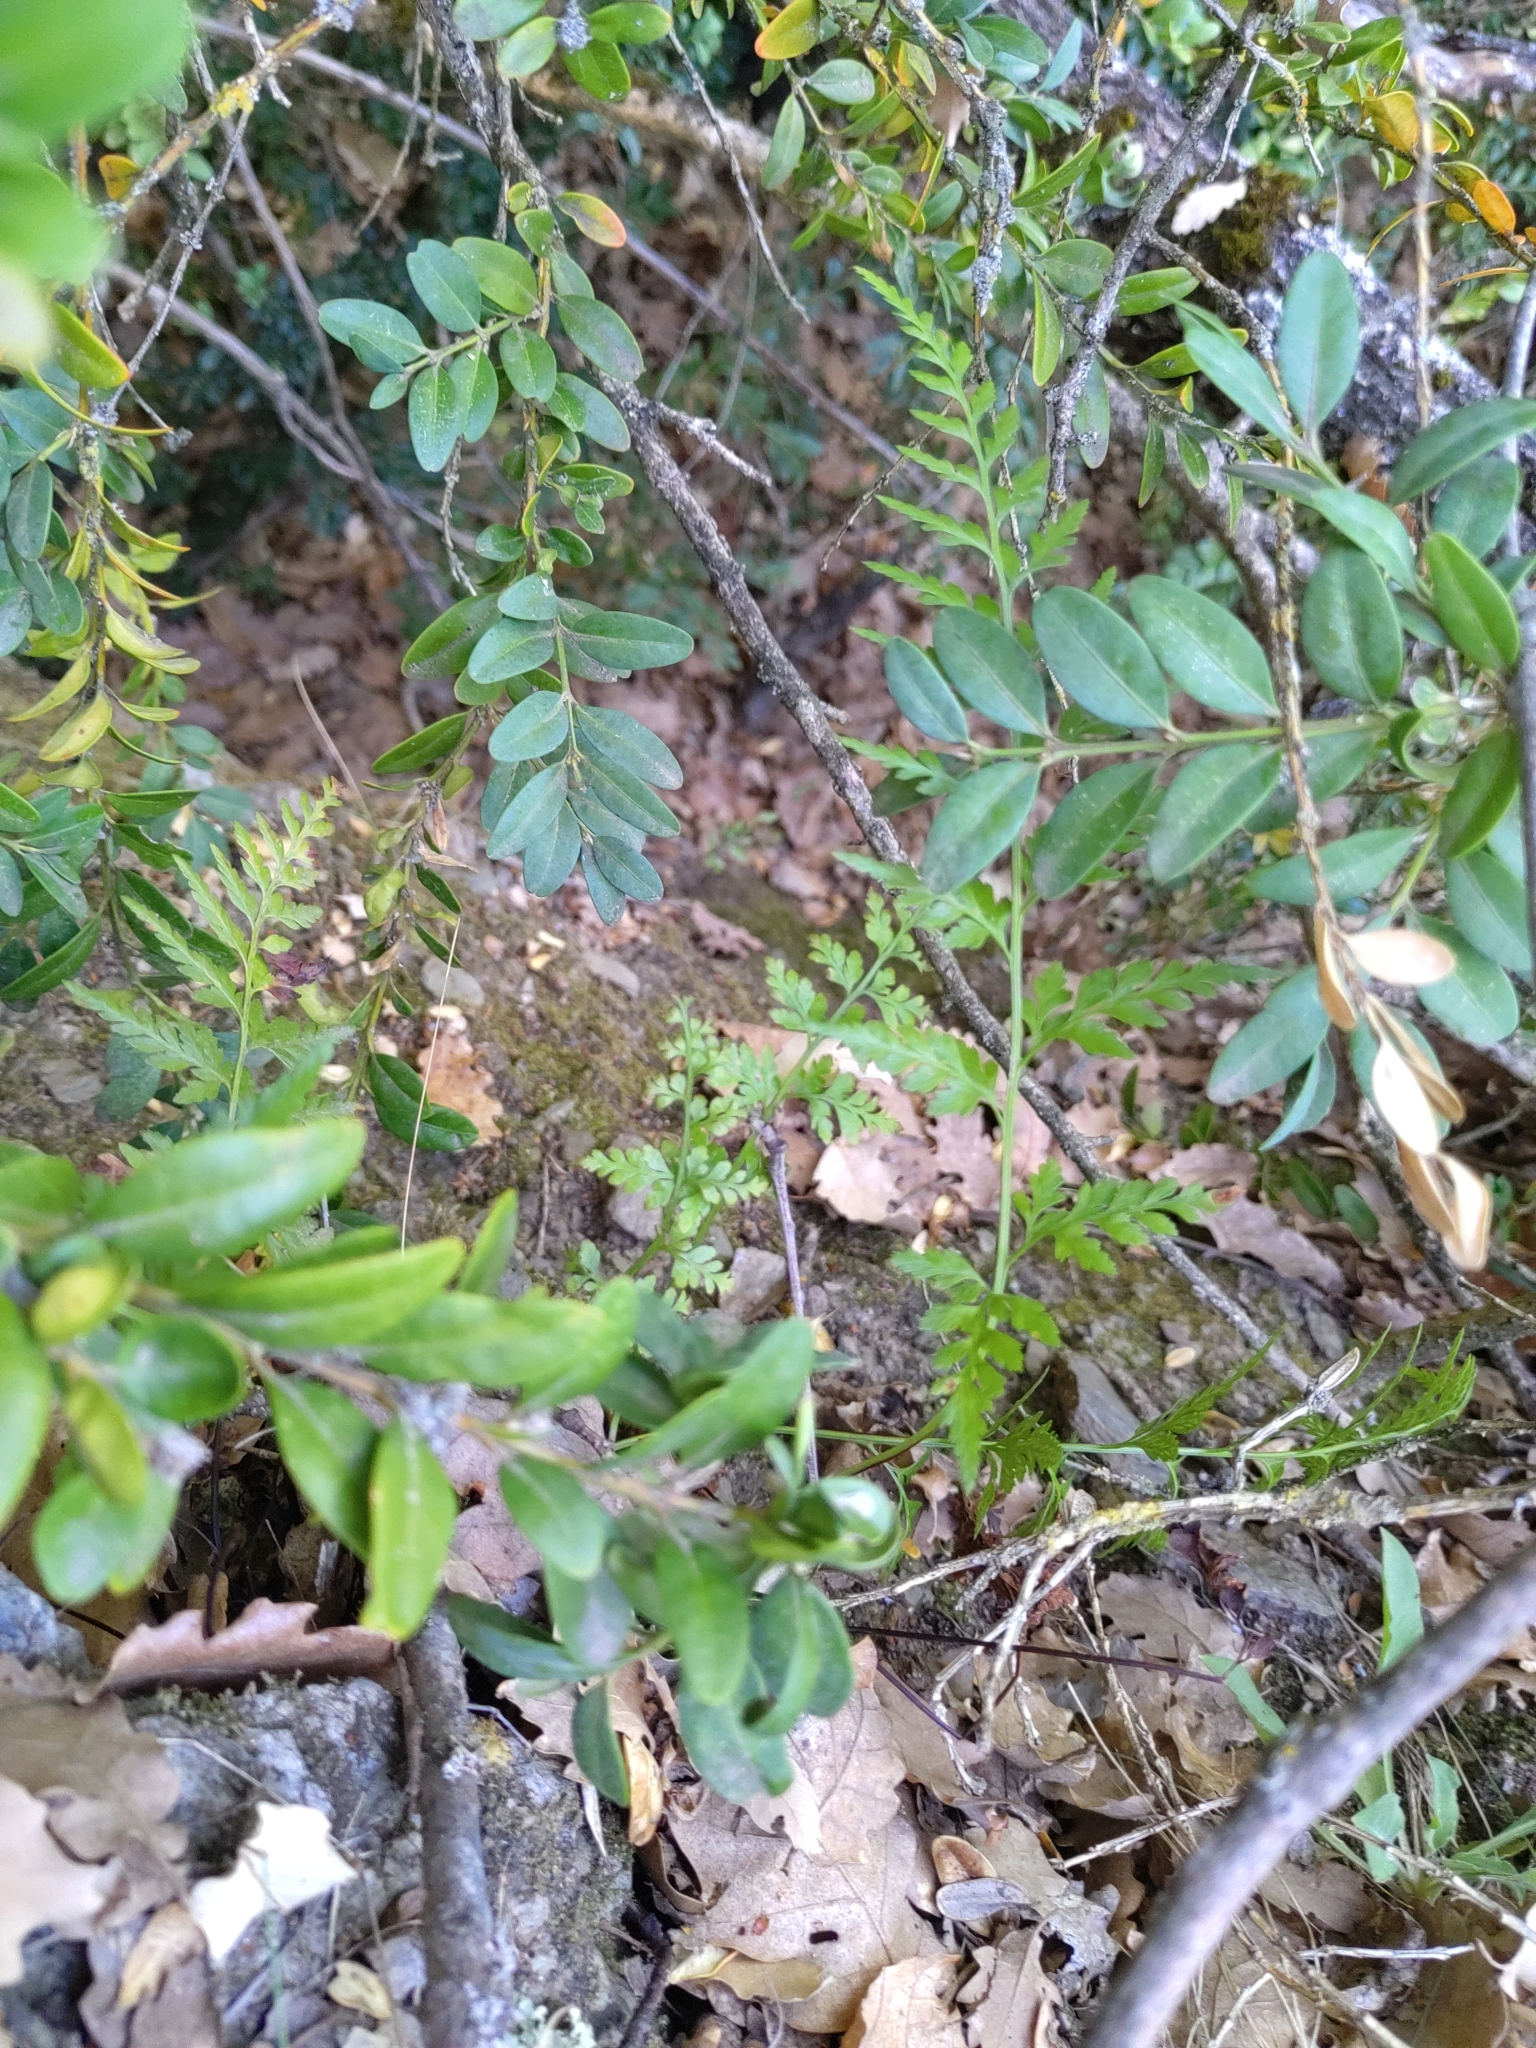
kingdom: Plantae
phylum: Tracheophyta
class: Polypodiopsida
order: Polypodiales
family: Aspleniaceae
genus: Asplenium
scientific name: Asplenium adiantum-nigrum
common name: Black spleenwort
